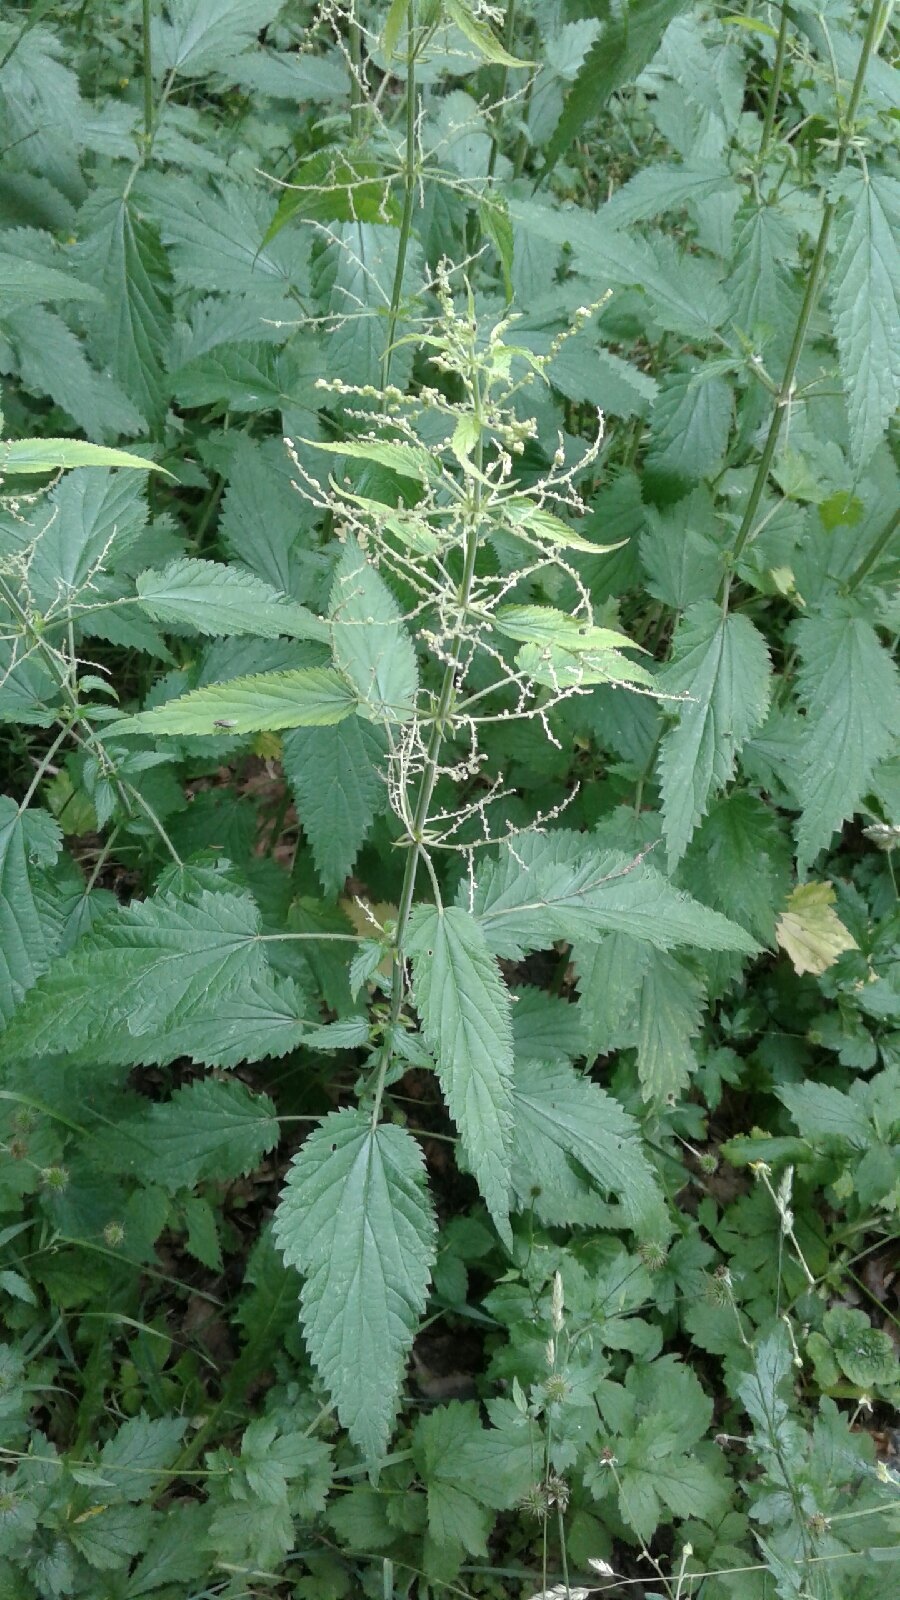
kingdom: Plantae
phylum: Tracheophyta
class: Magnoliopsida
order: Rosales
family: Urticaceae
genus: Urtica
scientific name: Urtica dioica
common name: Common nettle
